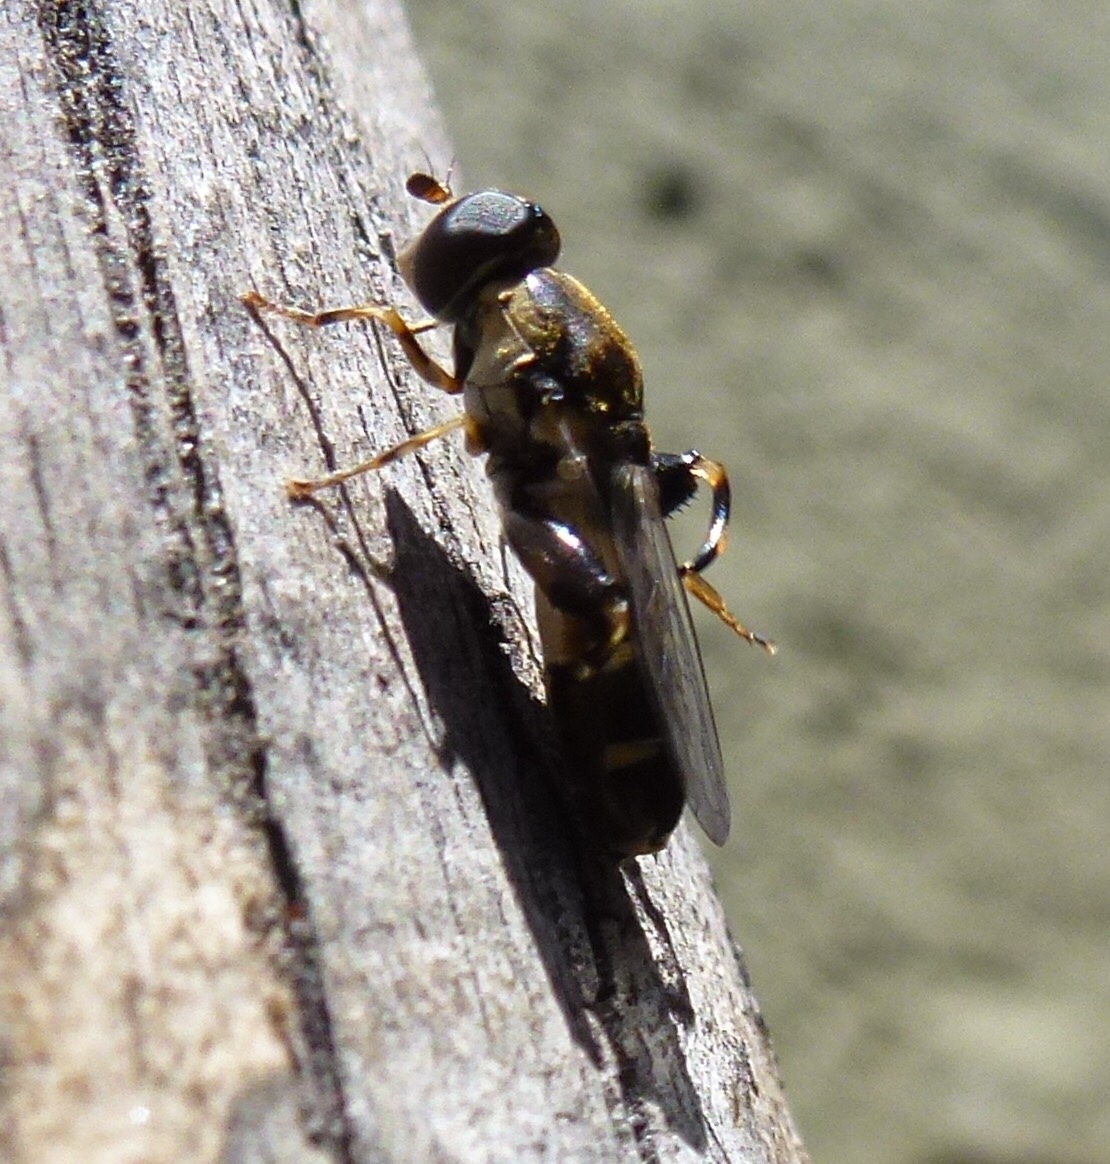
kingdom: Animalia
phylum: Arthropoda
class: Insecta
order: Diptera
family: Syrphidae
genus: Syritta
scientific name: Syritta pipiens
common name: Hover fly
